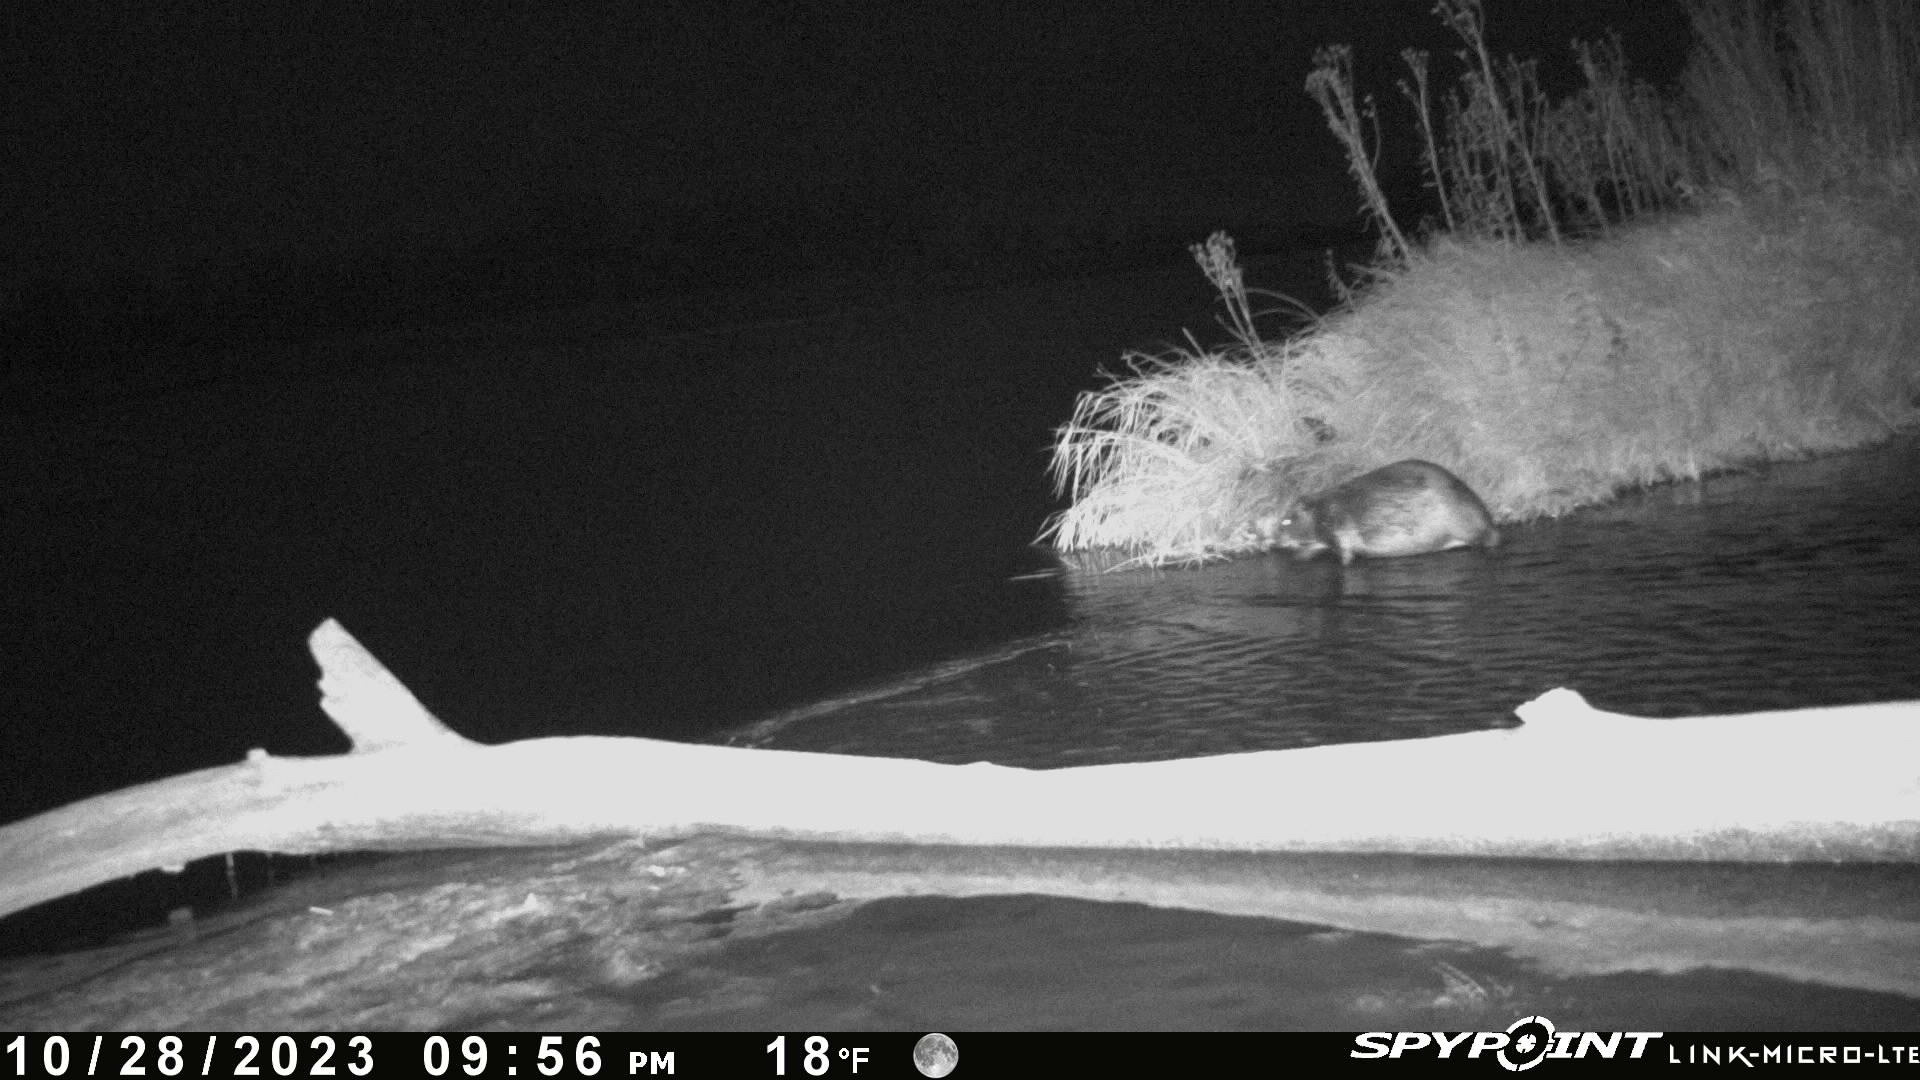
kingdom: Animalia
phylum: Chordata
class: Mammalia
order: Rodentia
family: Castoridae
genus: Castor
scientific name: Castor canadensis
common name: American beaver
